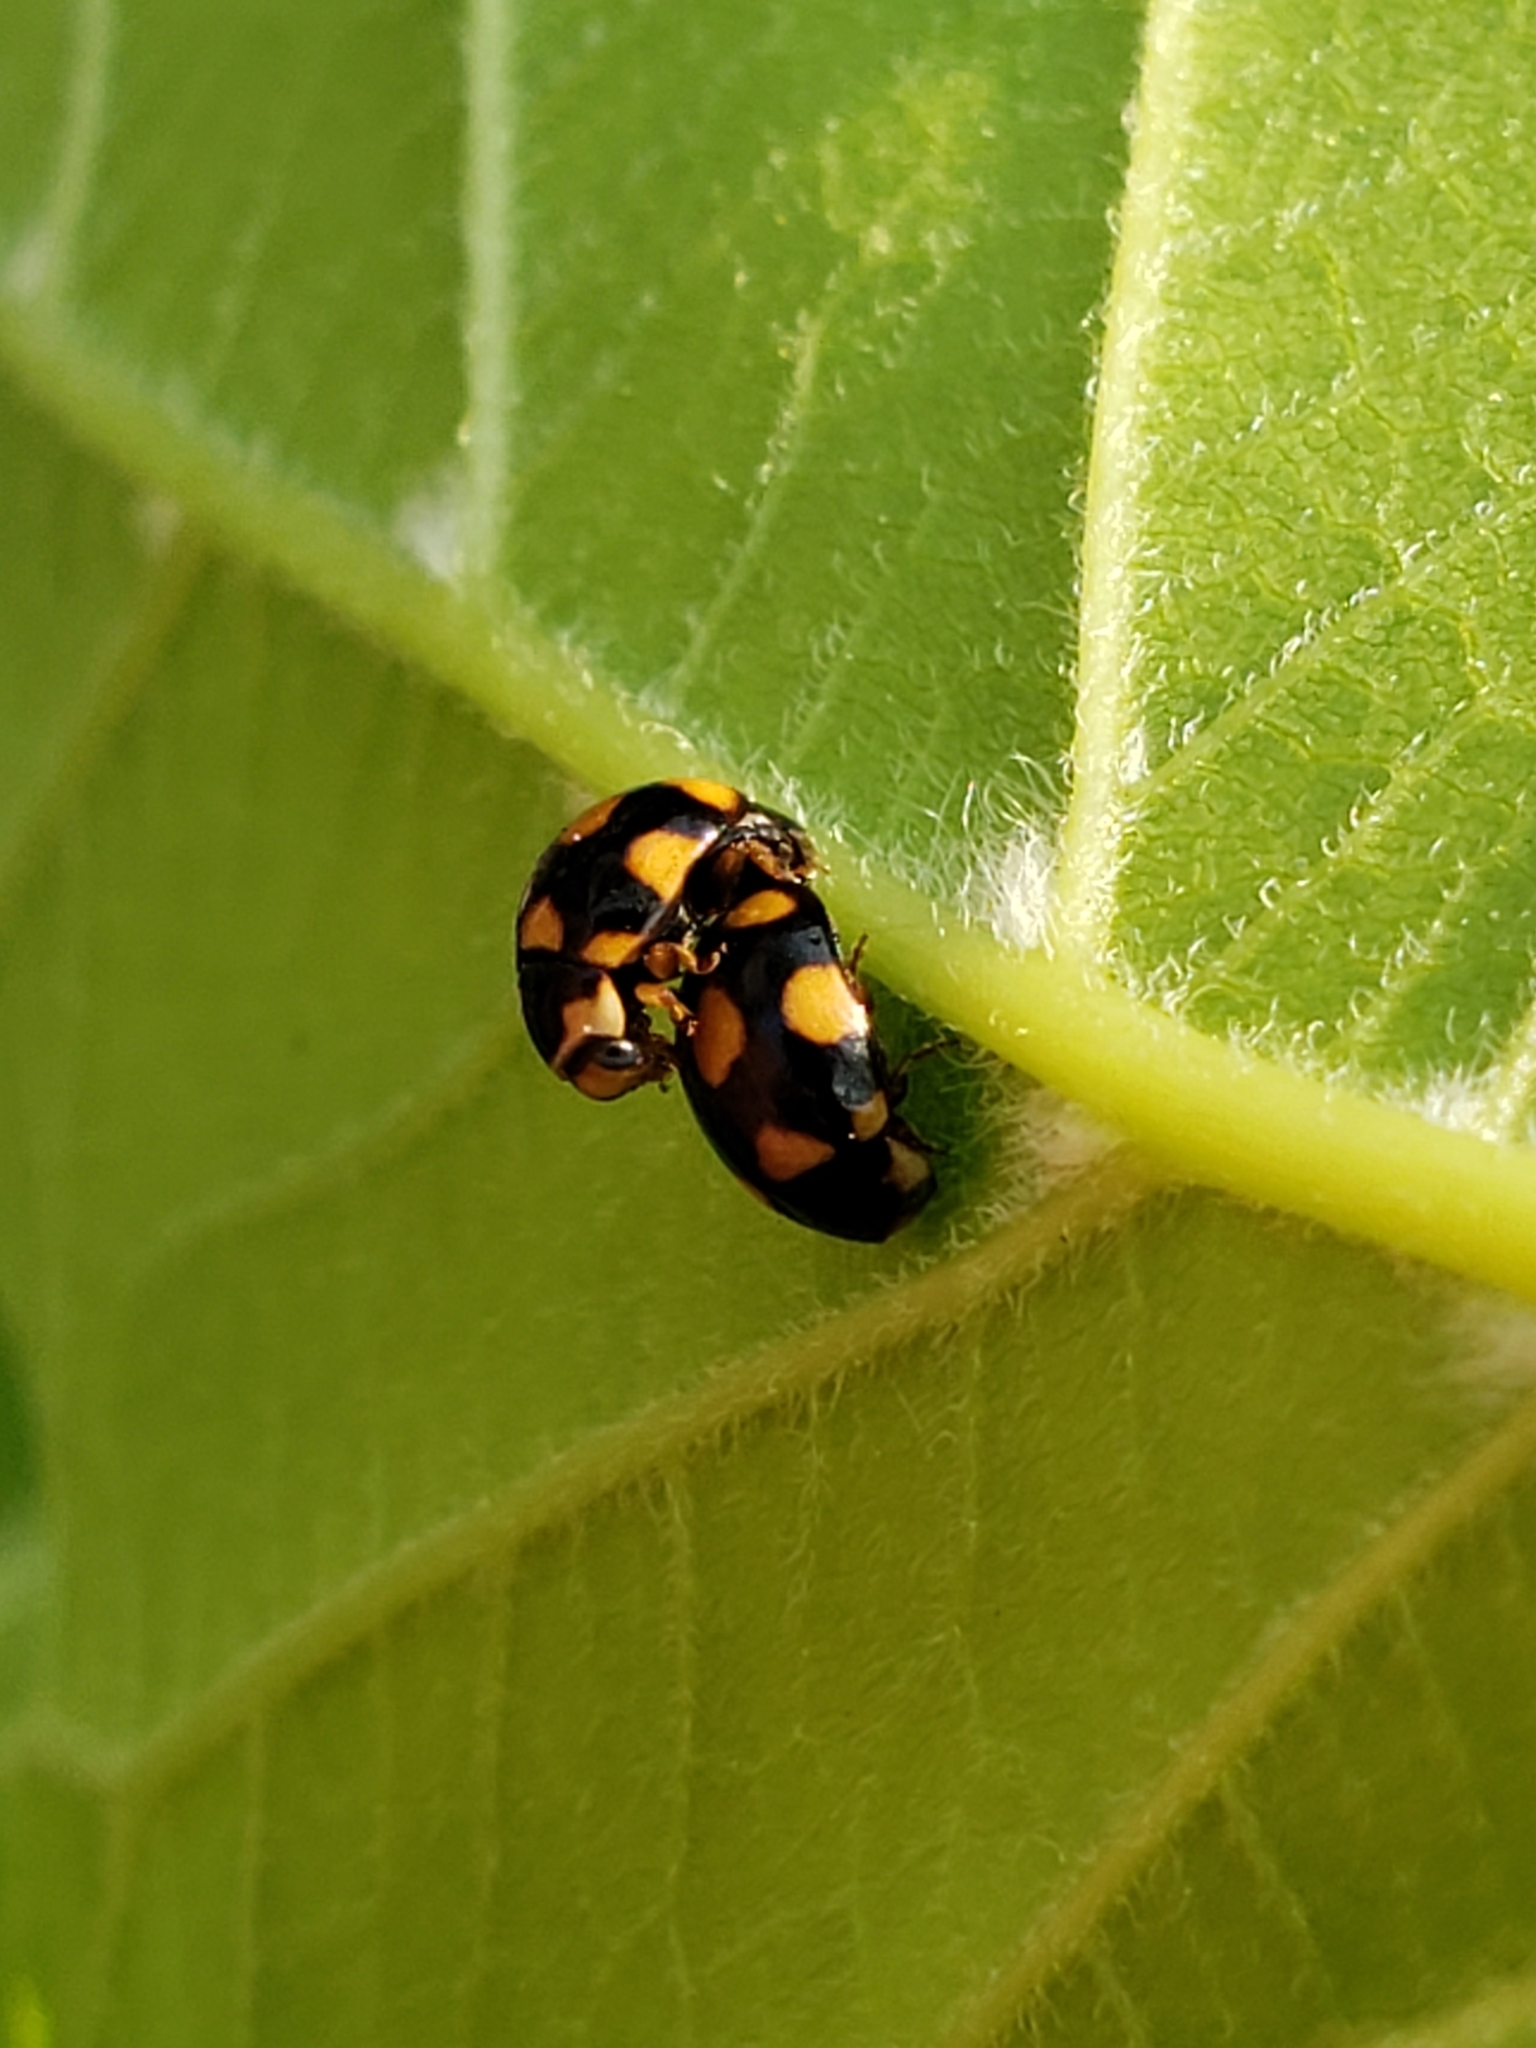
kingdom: Animalia
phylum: Arthropoda
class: Insecta
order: Coleoptera
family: Coccinellidae
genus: Brachiacantha
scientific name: Brachiacantha ursina
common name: Ursine spurleg lady beetle
